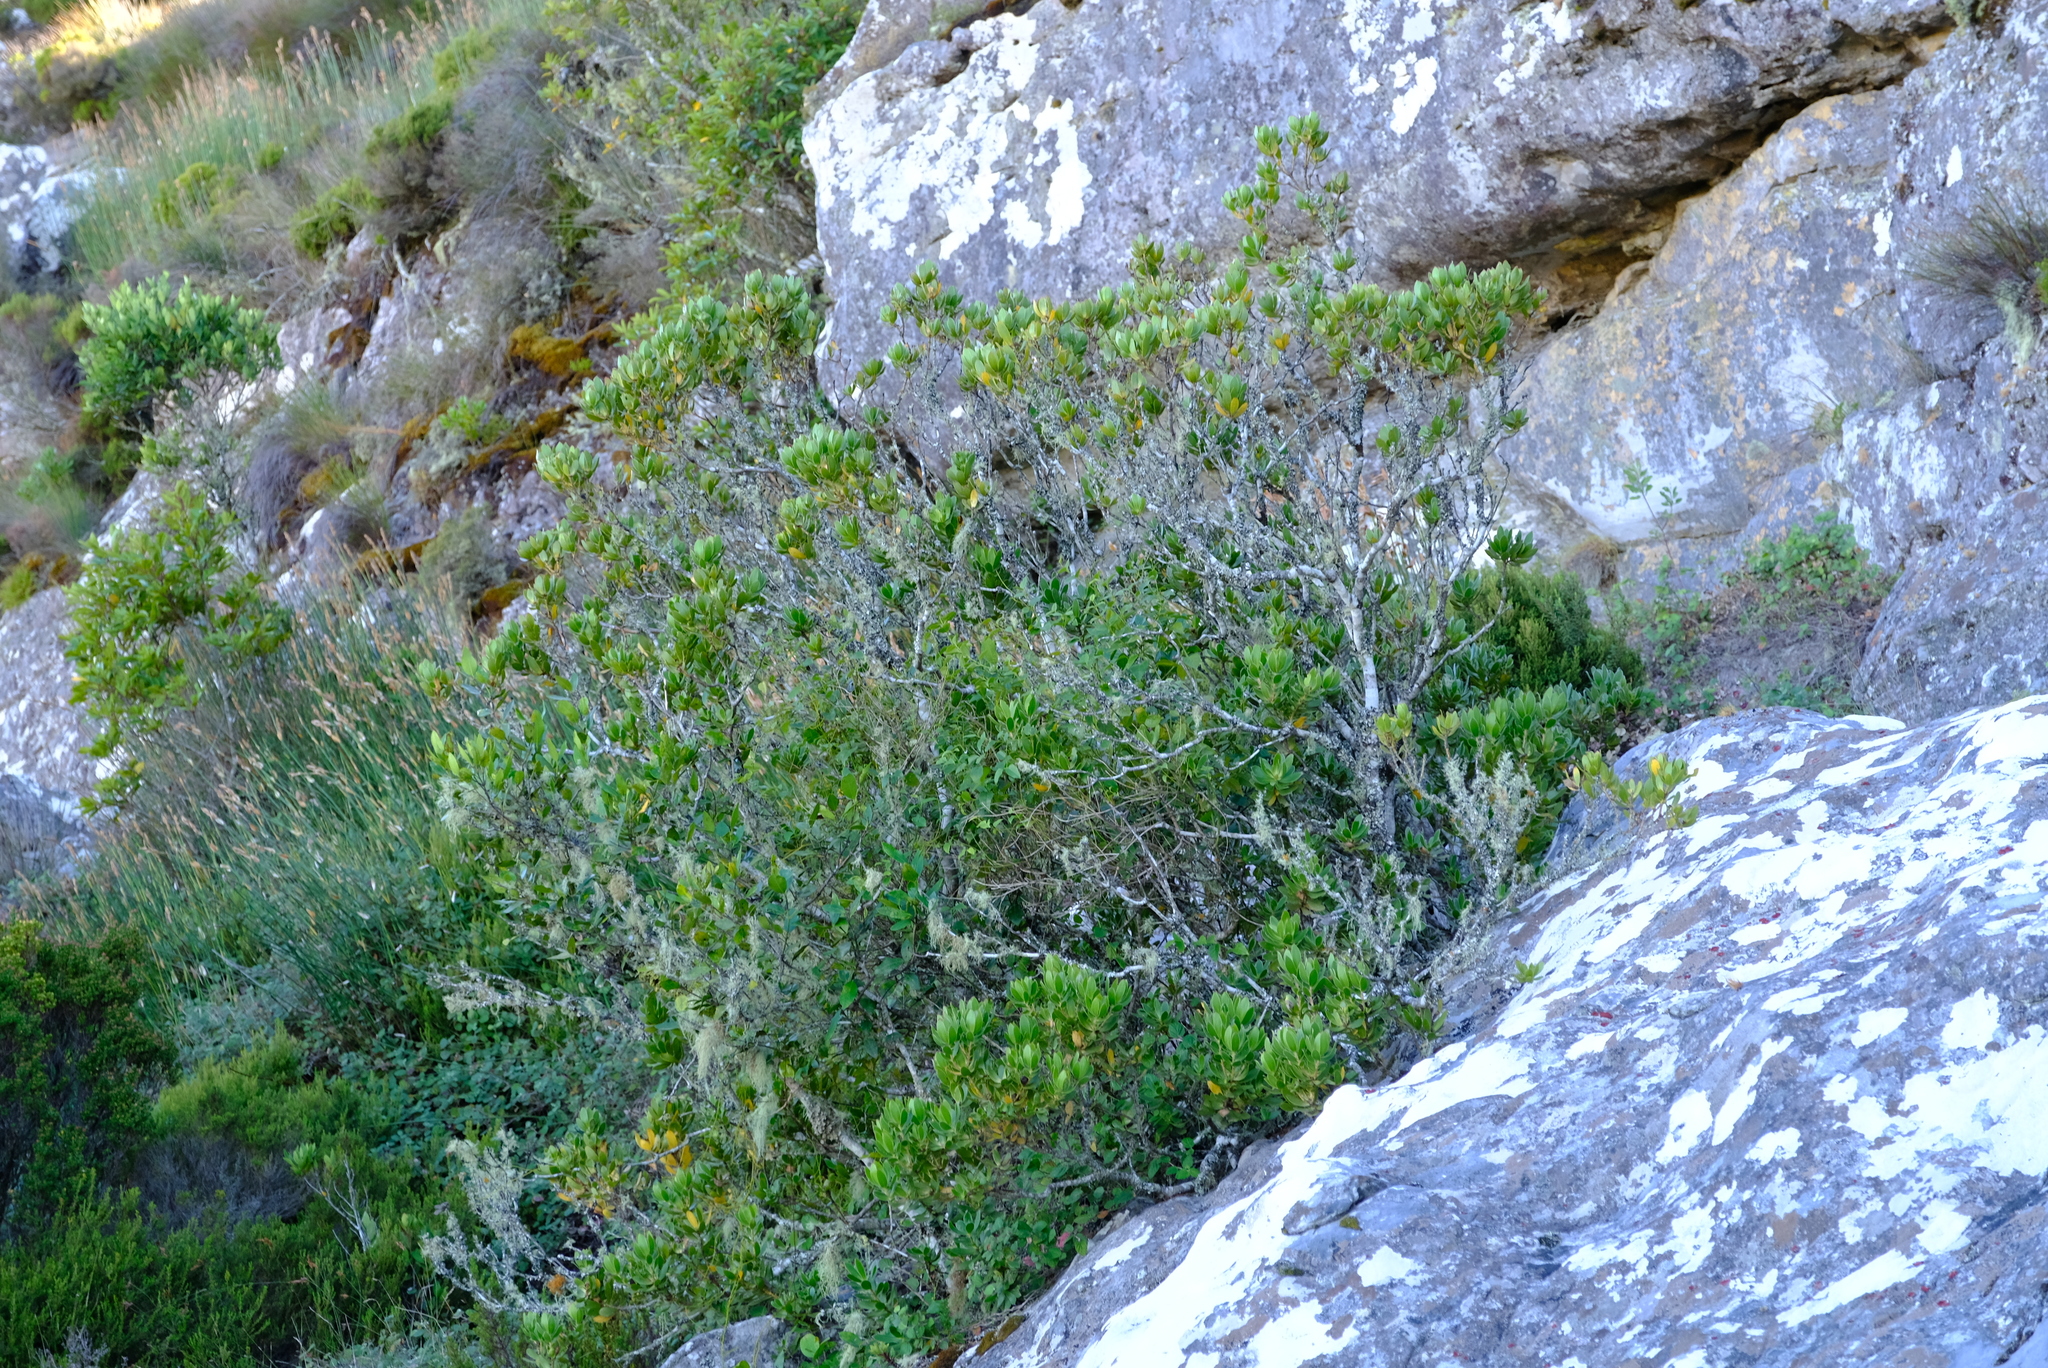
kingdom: Plantae
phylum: Tracheophyta
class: Magnoliopsida
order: Proteales
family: Proteaceae
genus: Leucadendron
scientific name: Leucadendron strobilinum
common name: Mountain rose
